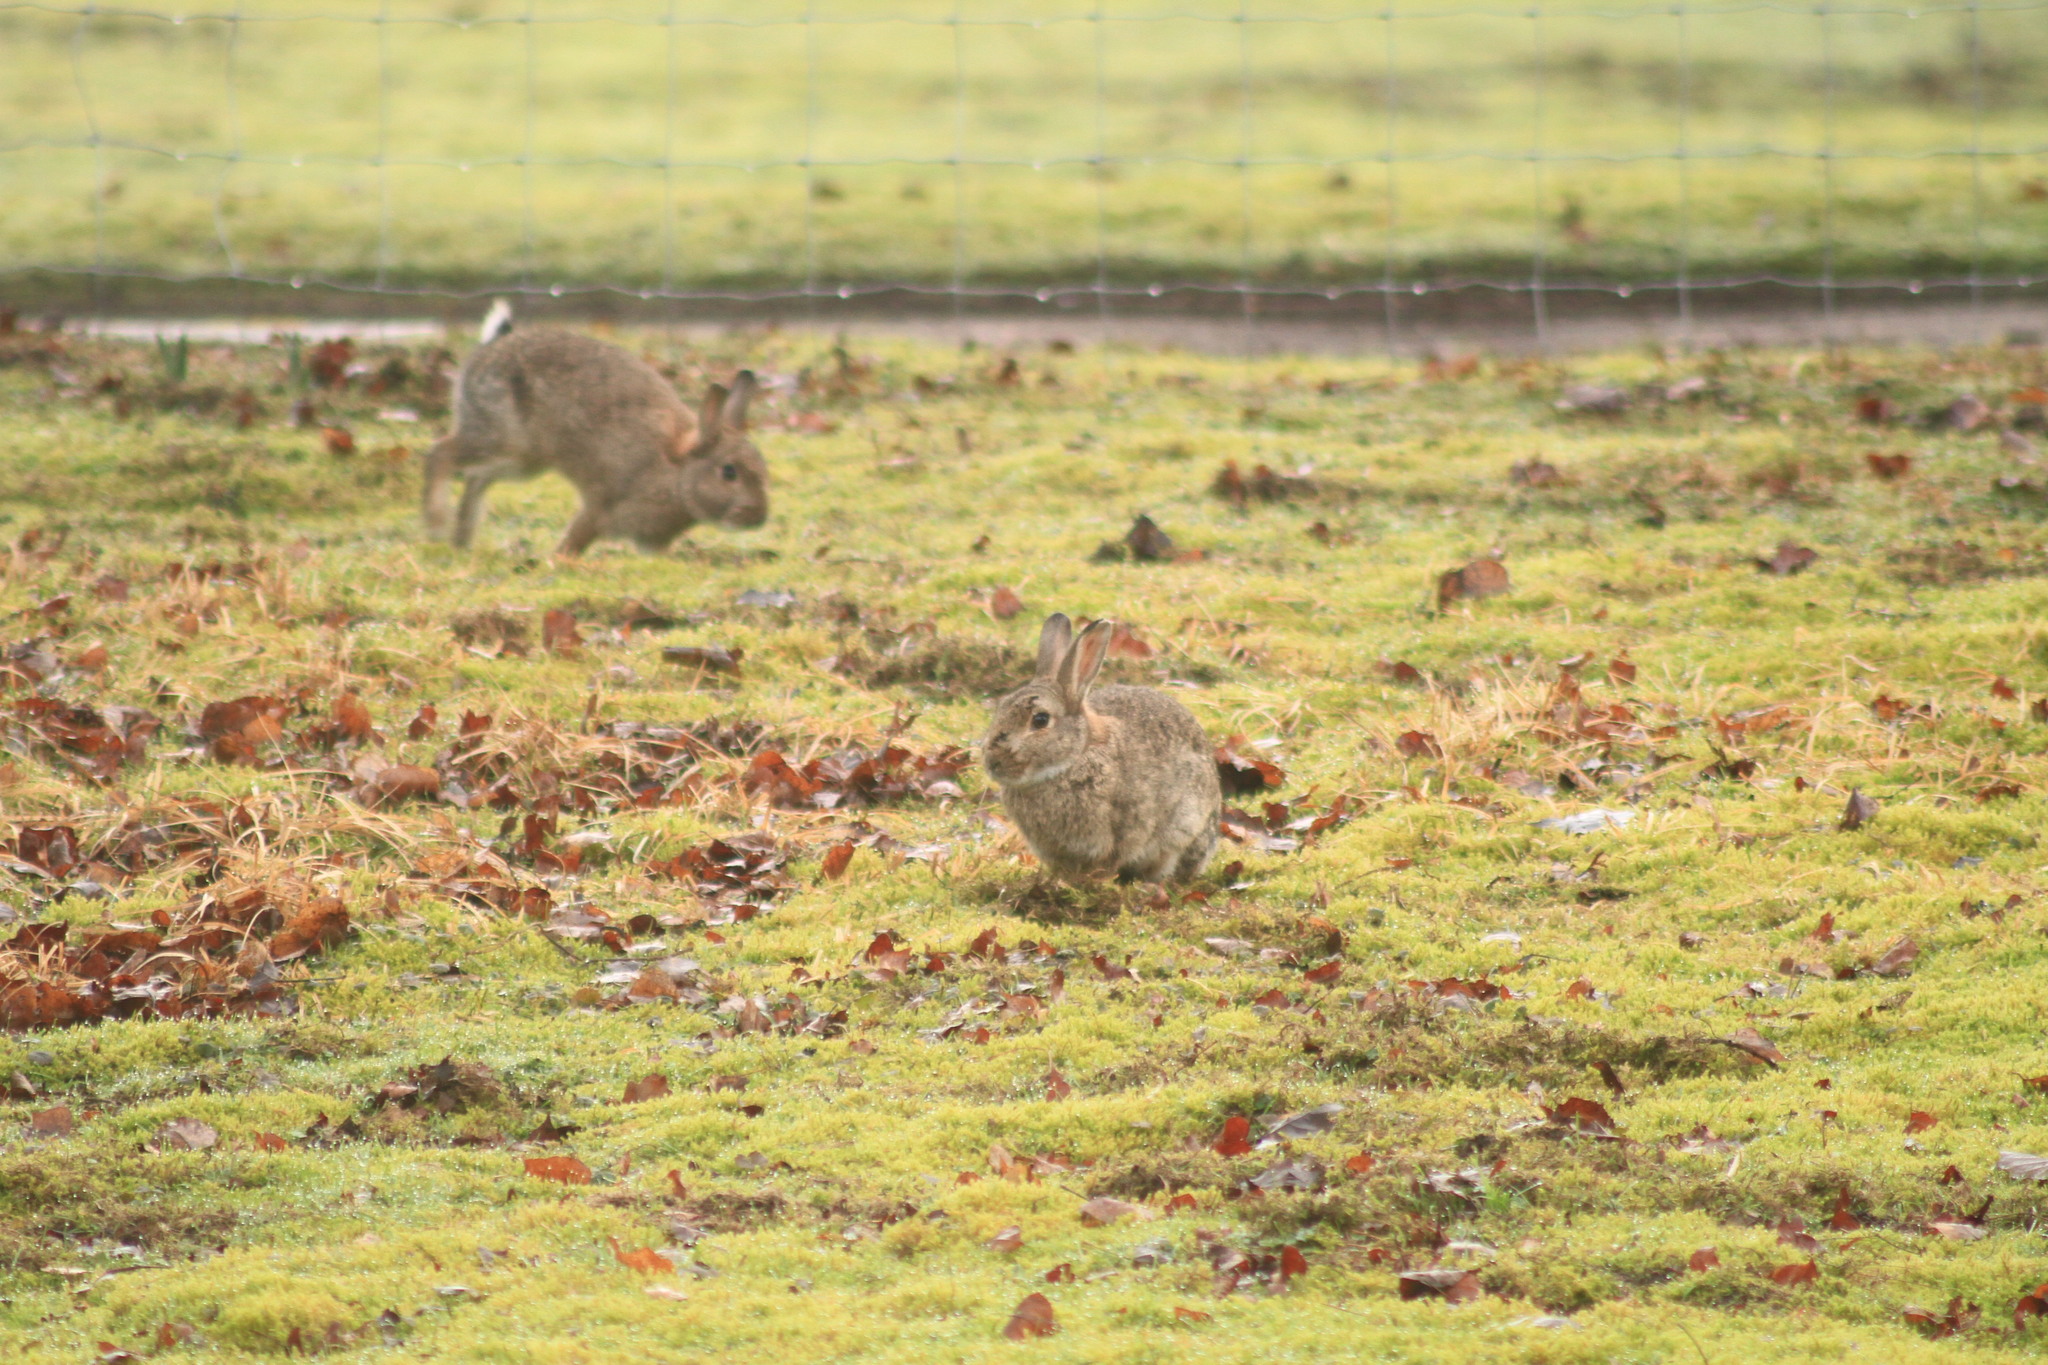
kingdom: Animalia
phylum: Chordata
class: Mammalia
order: Lagomorpha
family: Leporidae
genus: Oryctolagus
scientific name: Oryctolagus cuniculus
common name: European rabbit
